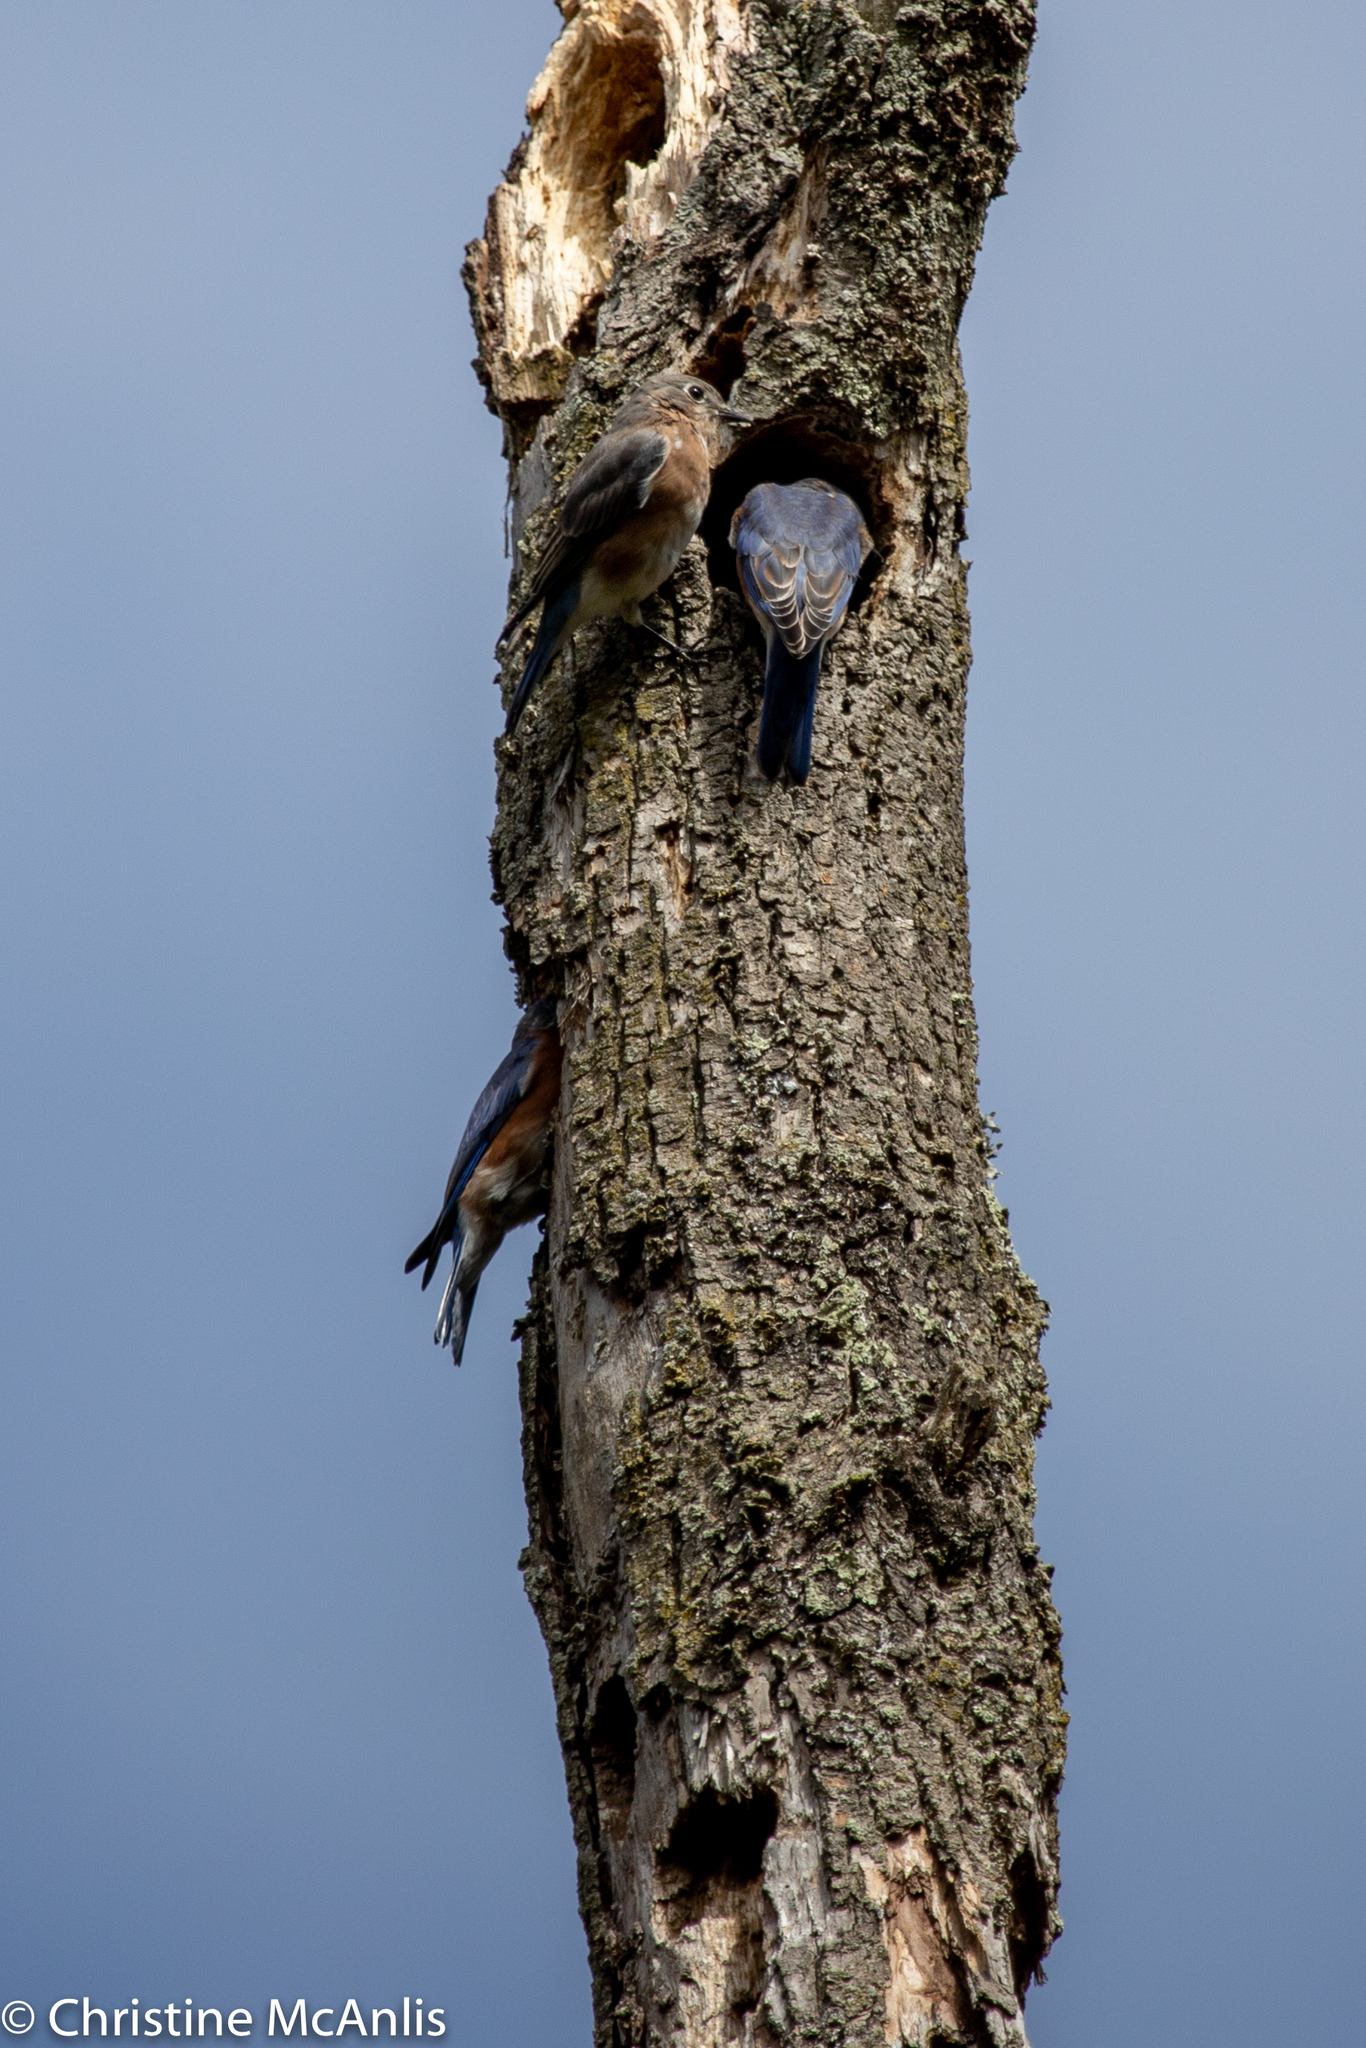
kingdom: Animalia
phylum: Chordata
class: Aves
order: Passeriformes
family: Turdidae
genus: Sialia
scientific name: Sialia sialis
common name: Eastern bluebird
